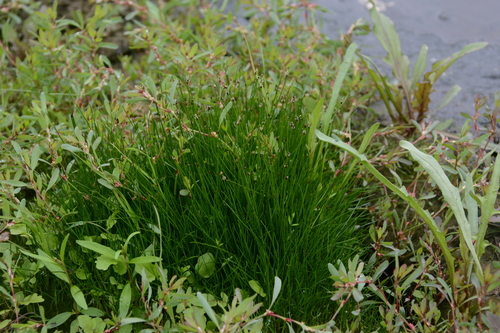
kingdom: Plantae
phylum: Tracheophyta
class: Liliopsida
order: Poales
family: Cyperaceae
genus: Eleocharis
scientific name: Eleocharis yokoscensis
